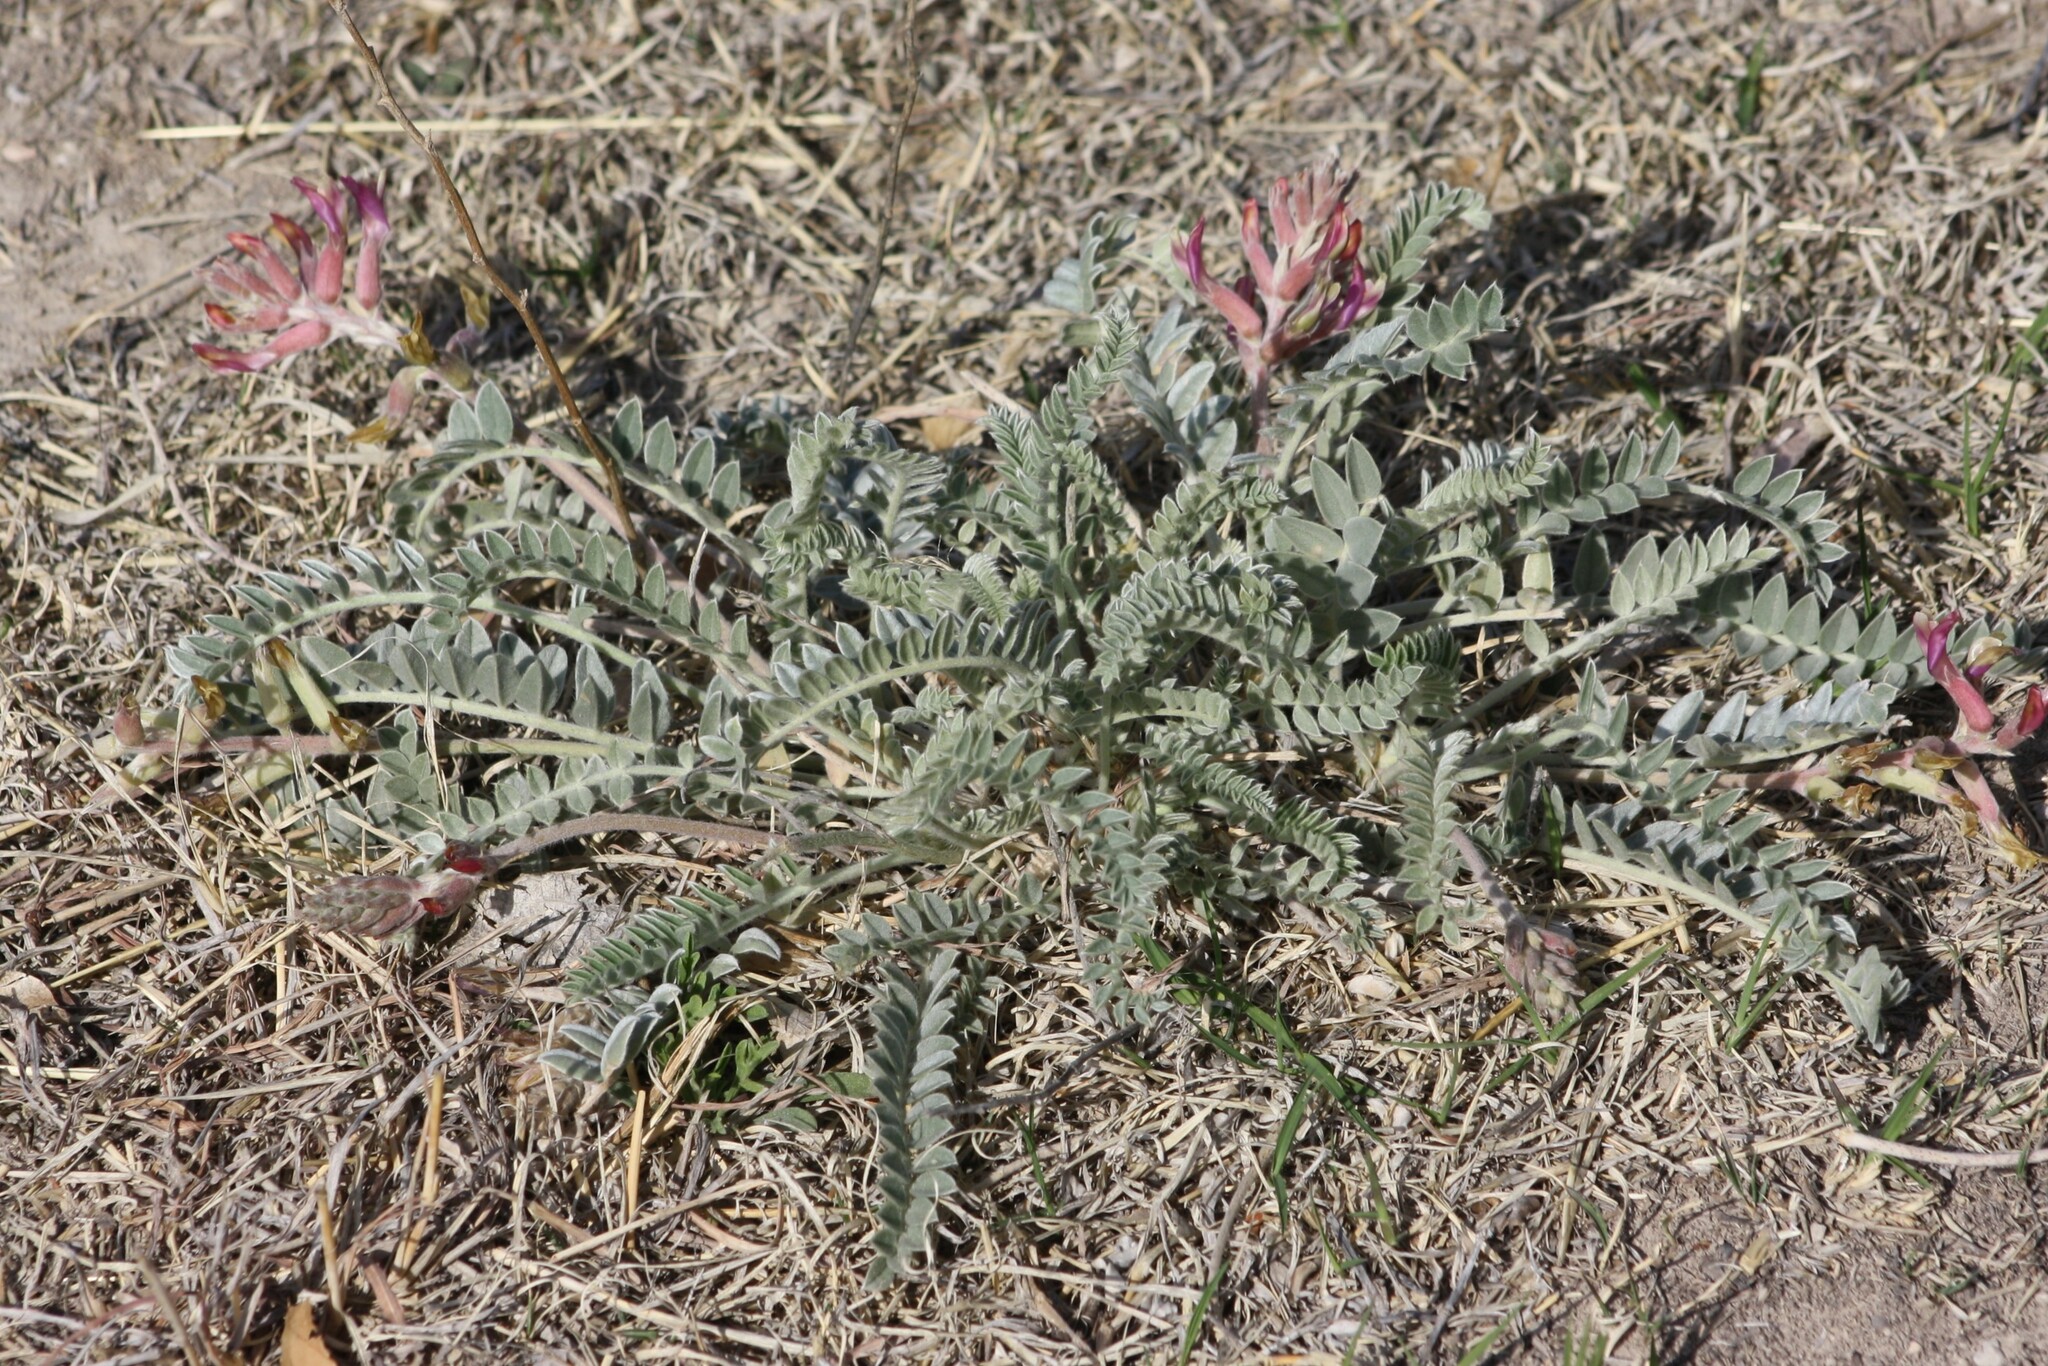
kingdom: Plantae
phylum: Tracheophyta
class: Magnoliopsida
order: Fabales
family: Fabaceae
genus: Astragalus
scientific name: Astragalus mollissimus
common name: Woolly locoweed
